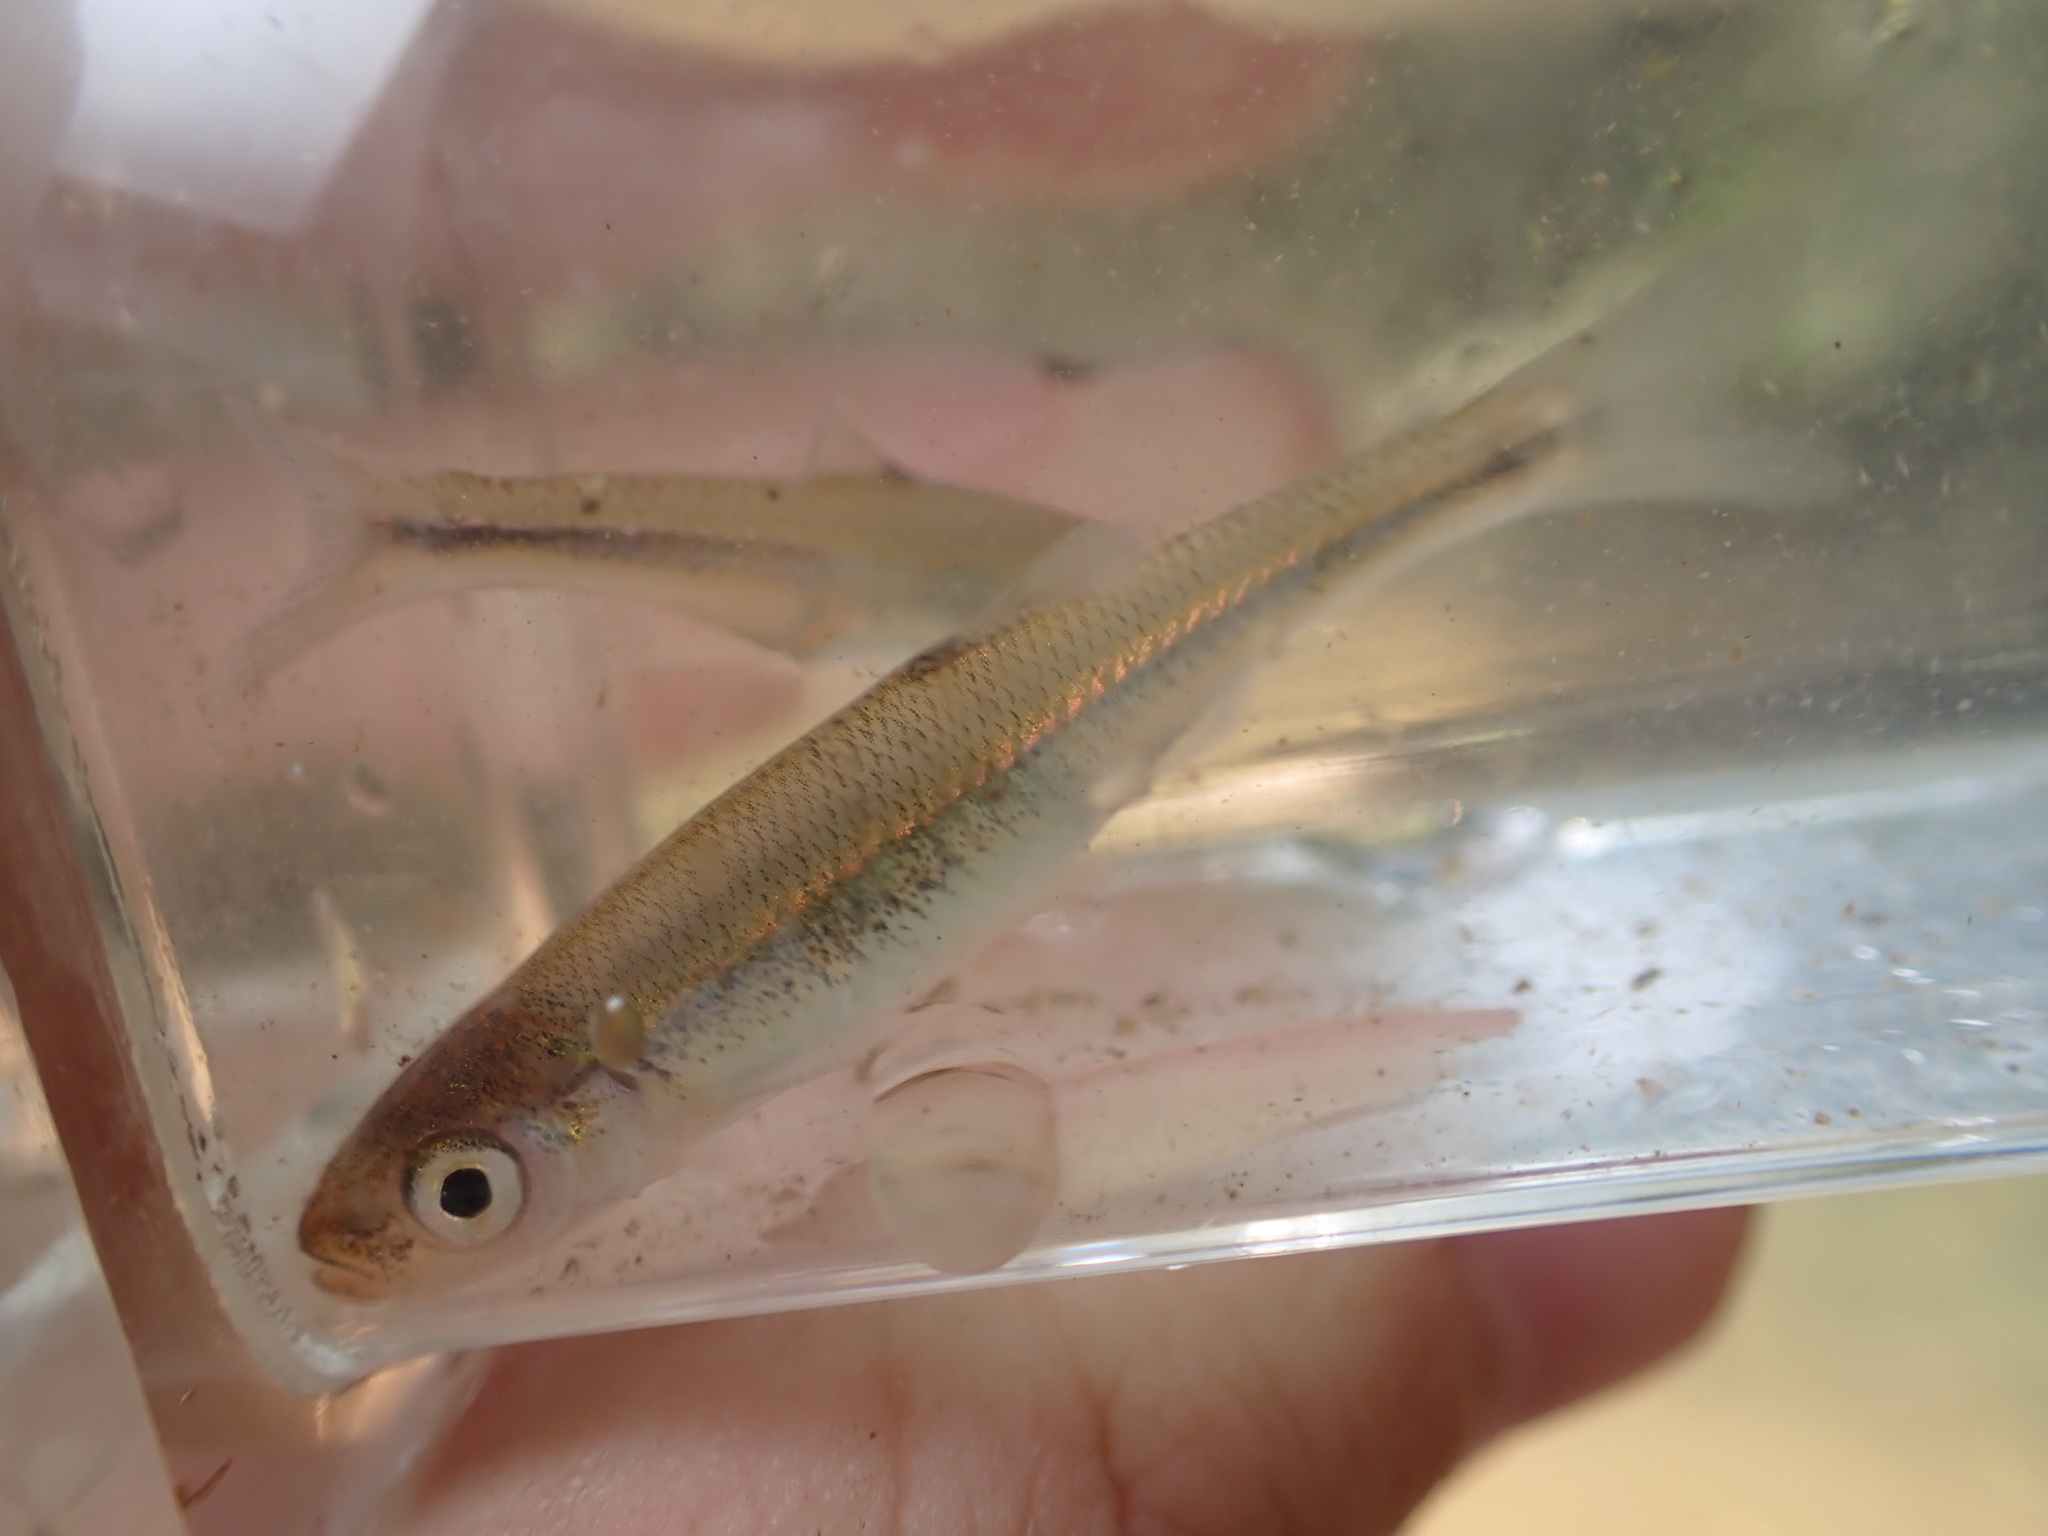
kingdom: Animalia
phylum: Chordata
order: Cypriniformes
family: Cyprinidae
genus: Lythrurus
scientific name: Lythrurus fasciolaris
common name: Scarlet shiner
